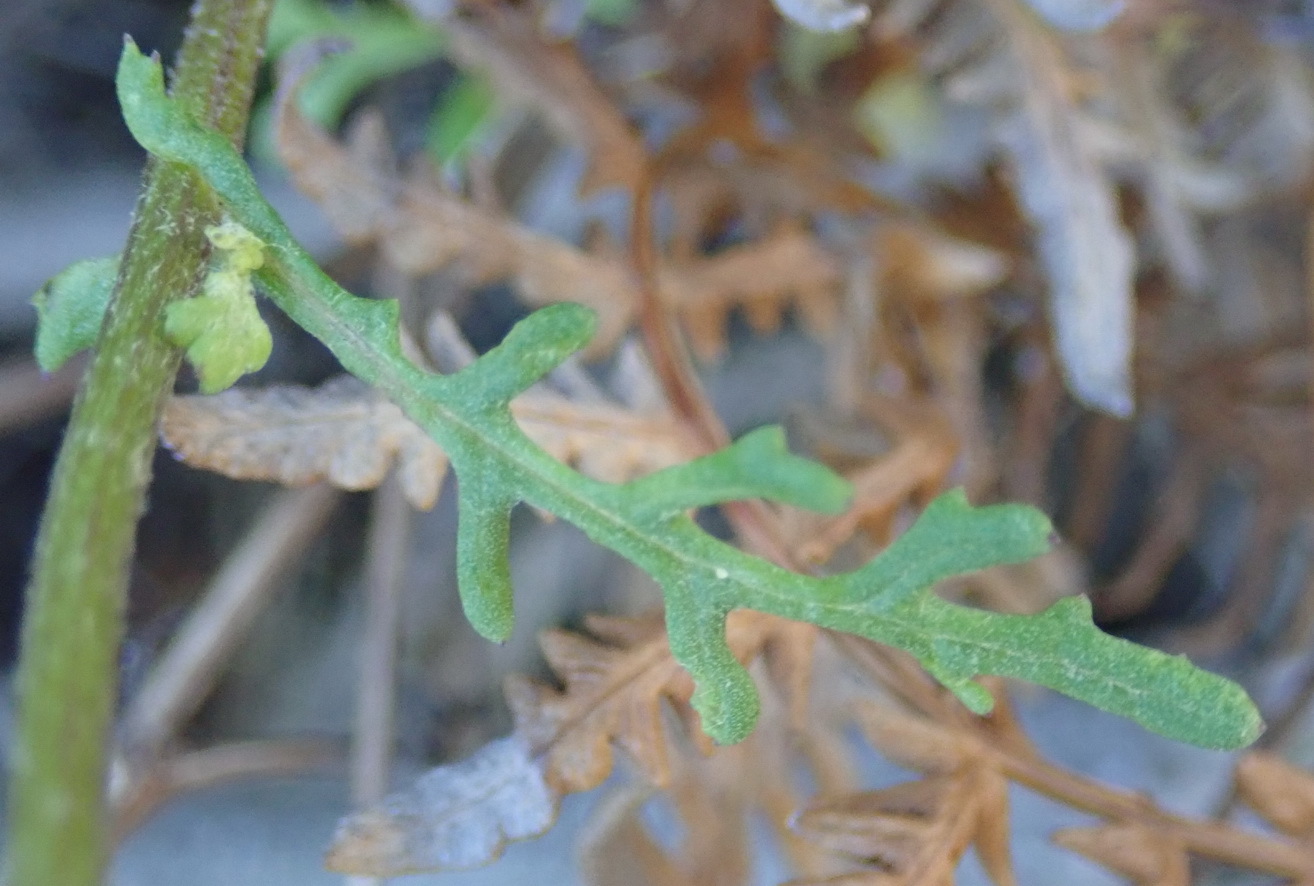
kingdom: Plantae
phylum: Tracheophyta
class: Magnoliopsida
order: Asterales
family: Asteraceae
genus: Senecio
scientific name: Senecio elegans
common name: Purple groundsel
